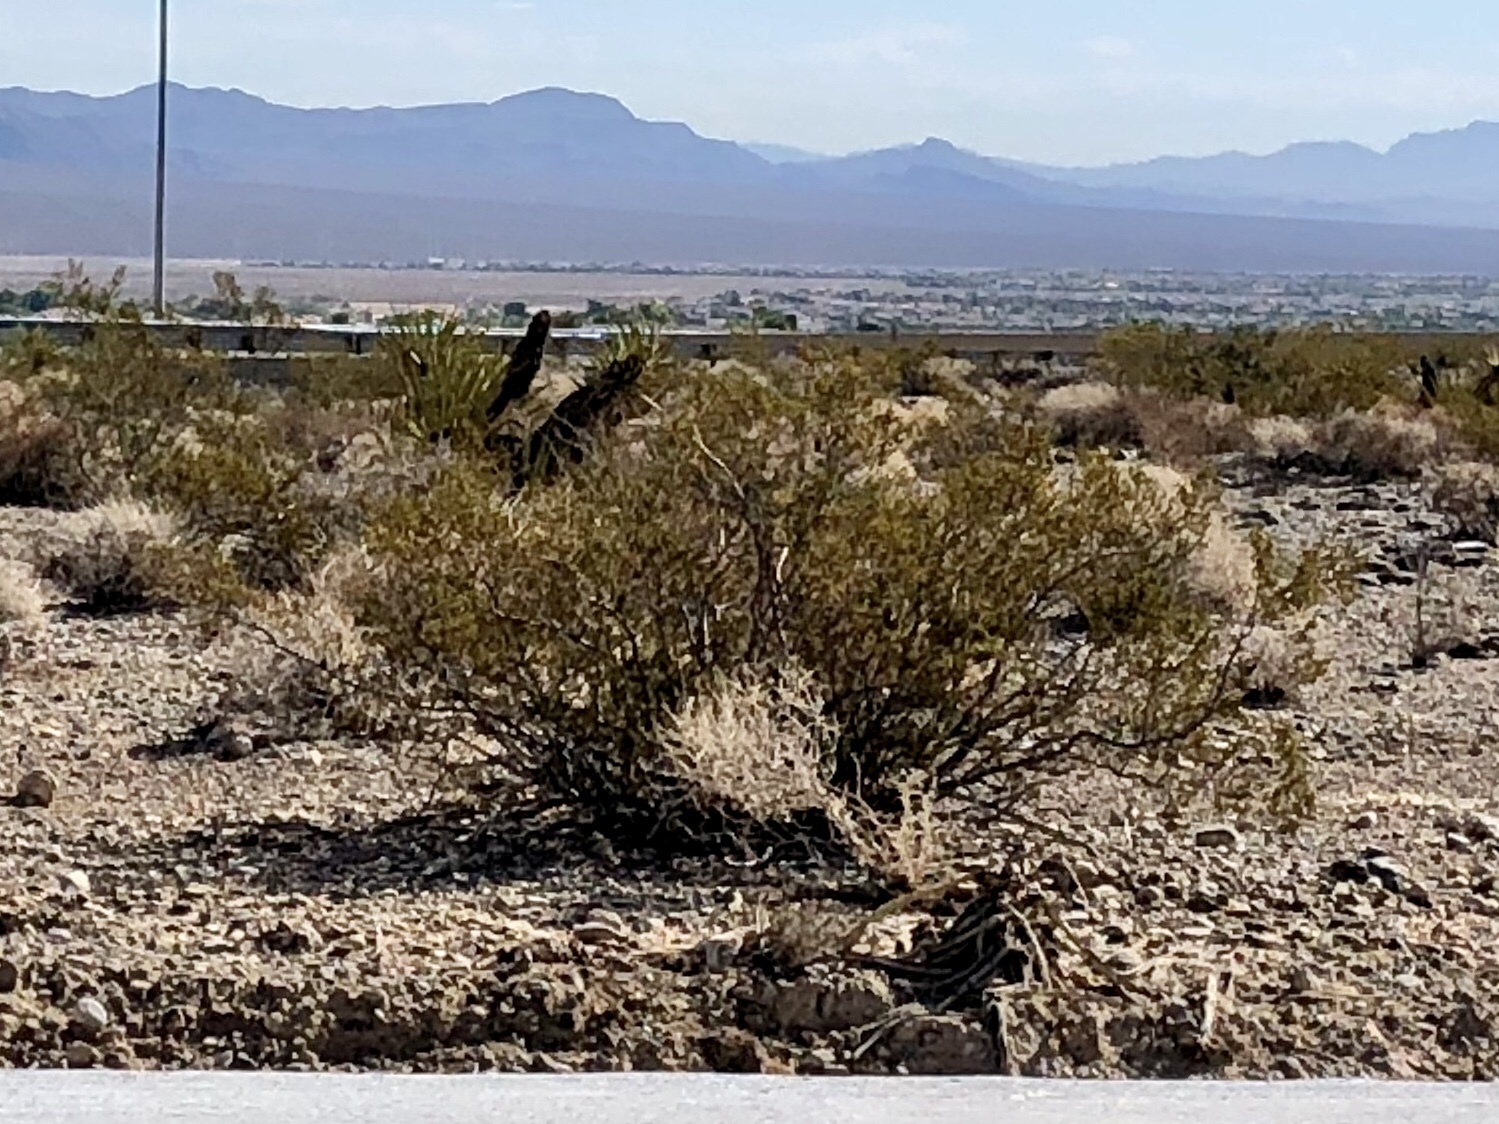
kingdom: Plantae
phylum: Tracheophyta
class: Magnoliopsida
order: Zygophyllales
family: Zygophyllaceae
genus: Larrea
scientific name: Larrea tridentata
